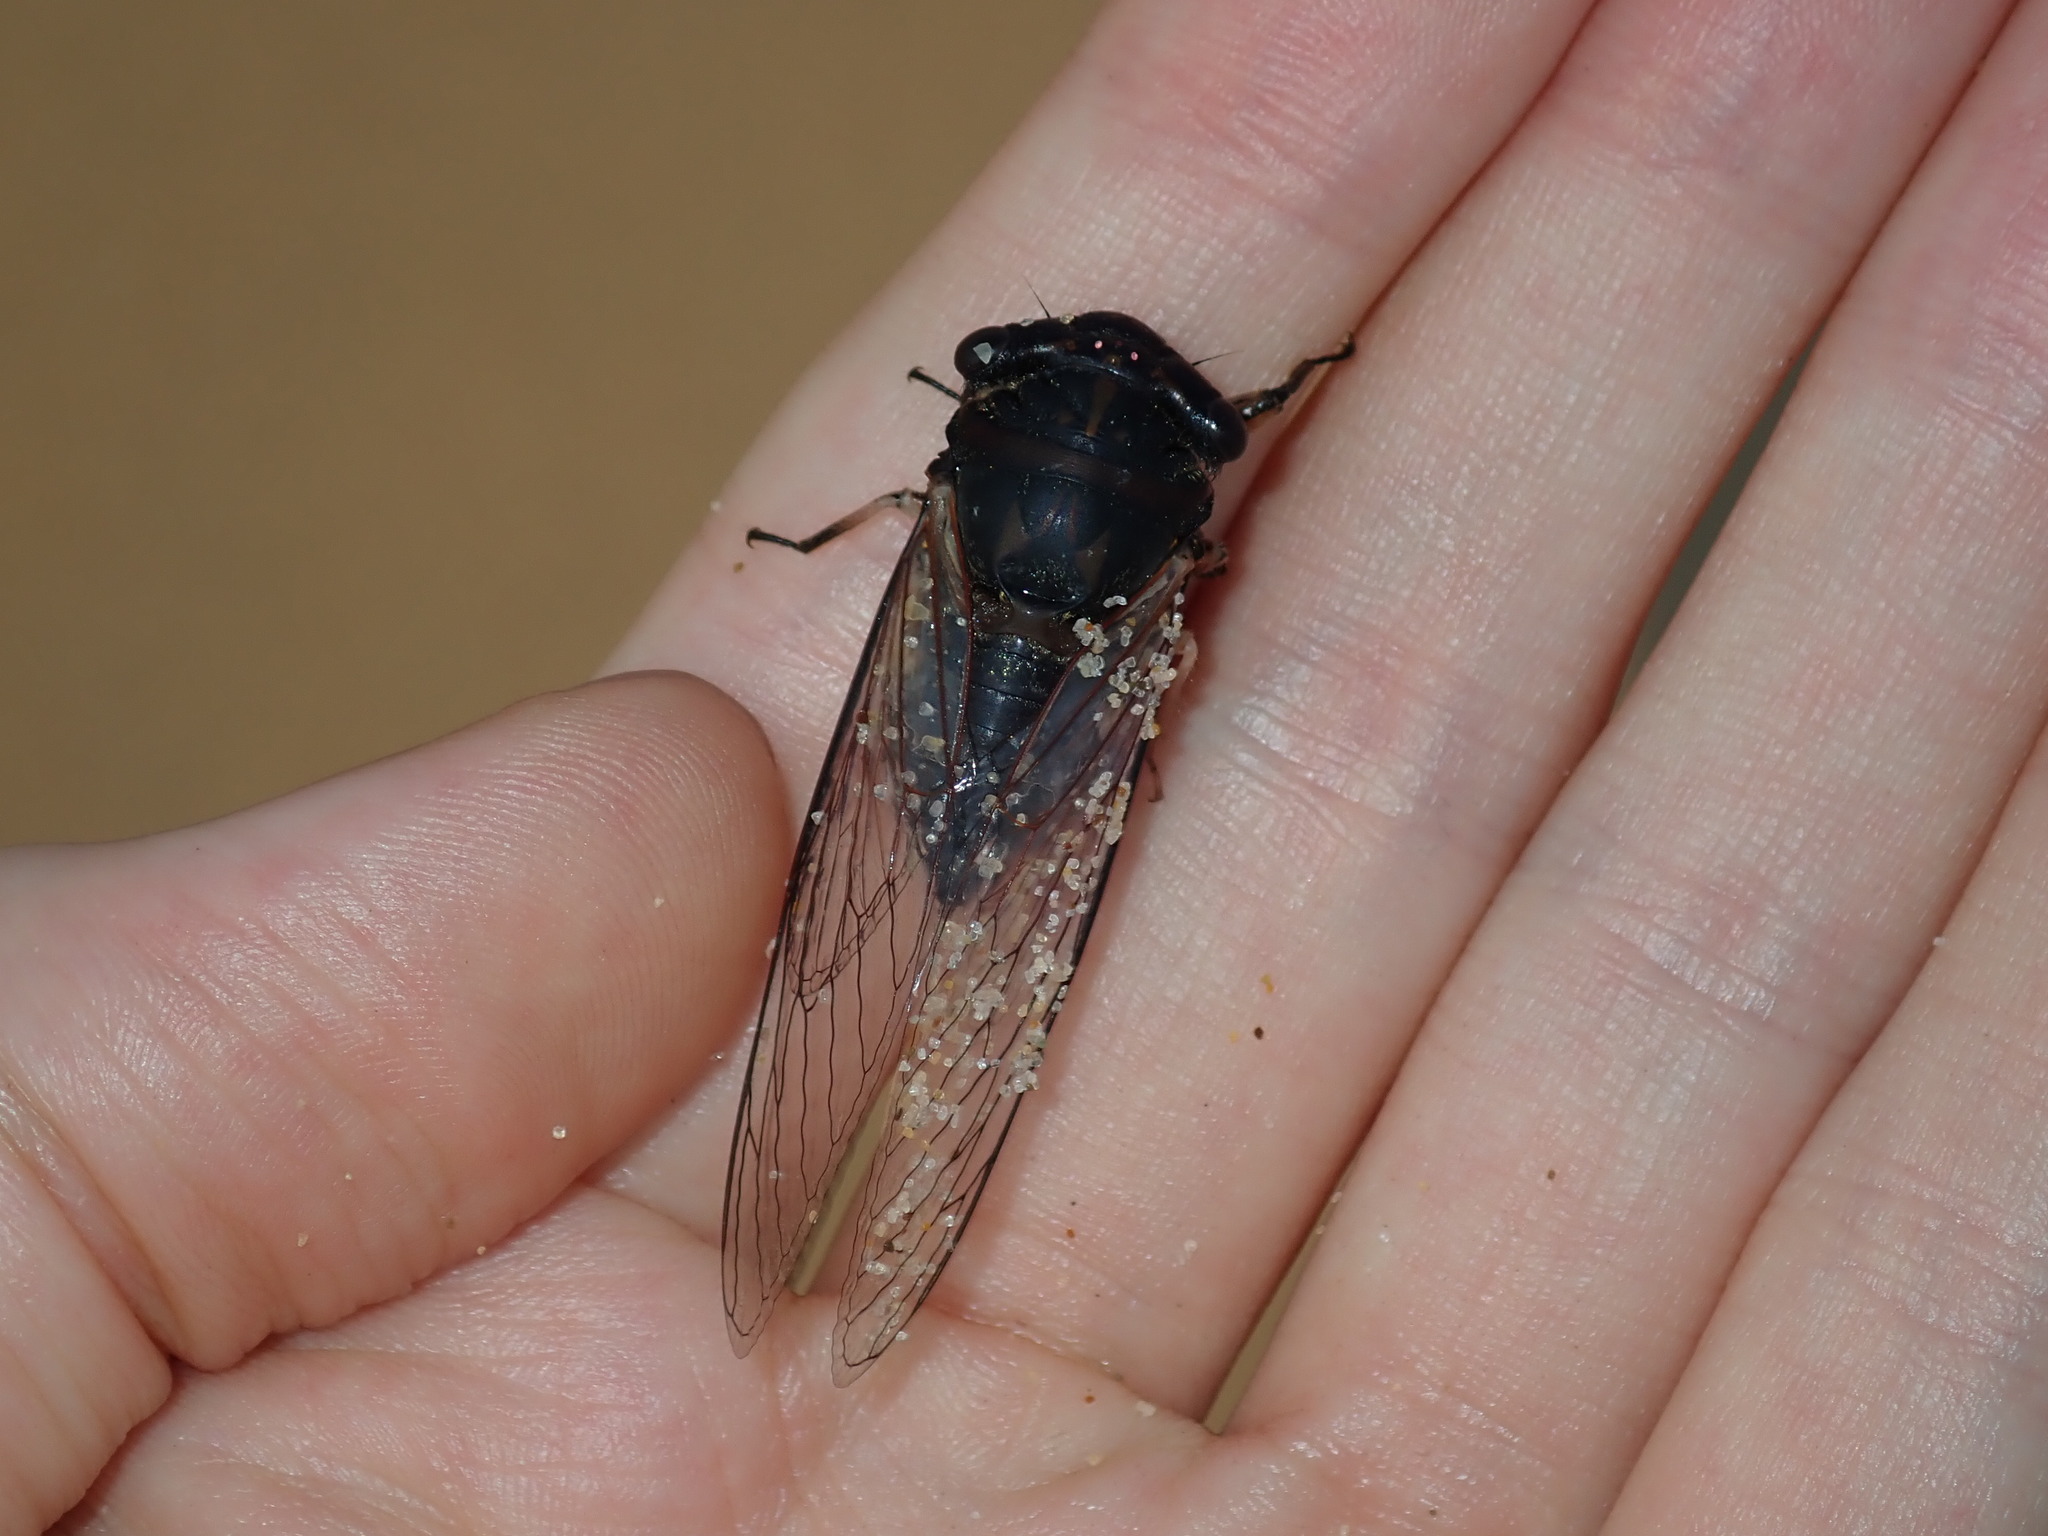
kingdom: Animalia
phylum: Arthropoda
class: Insecta
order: Hemiptera
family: Cicadidae
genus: Psaltoda
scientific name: Psaltoda harrisii
